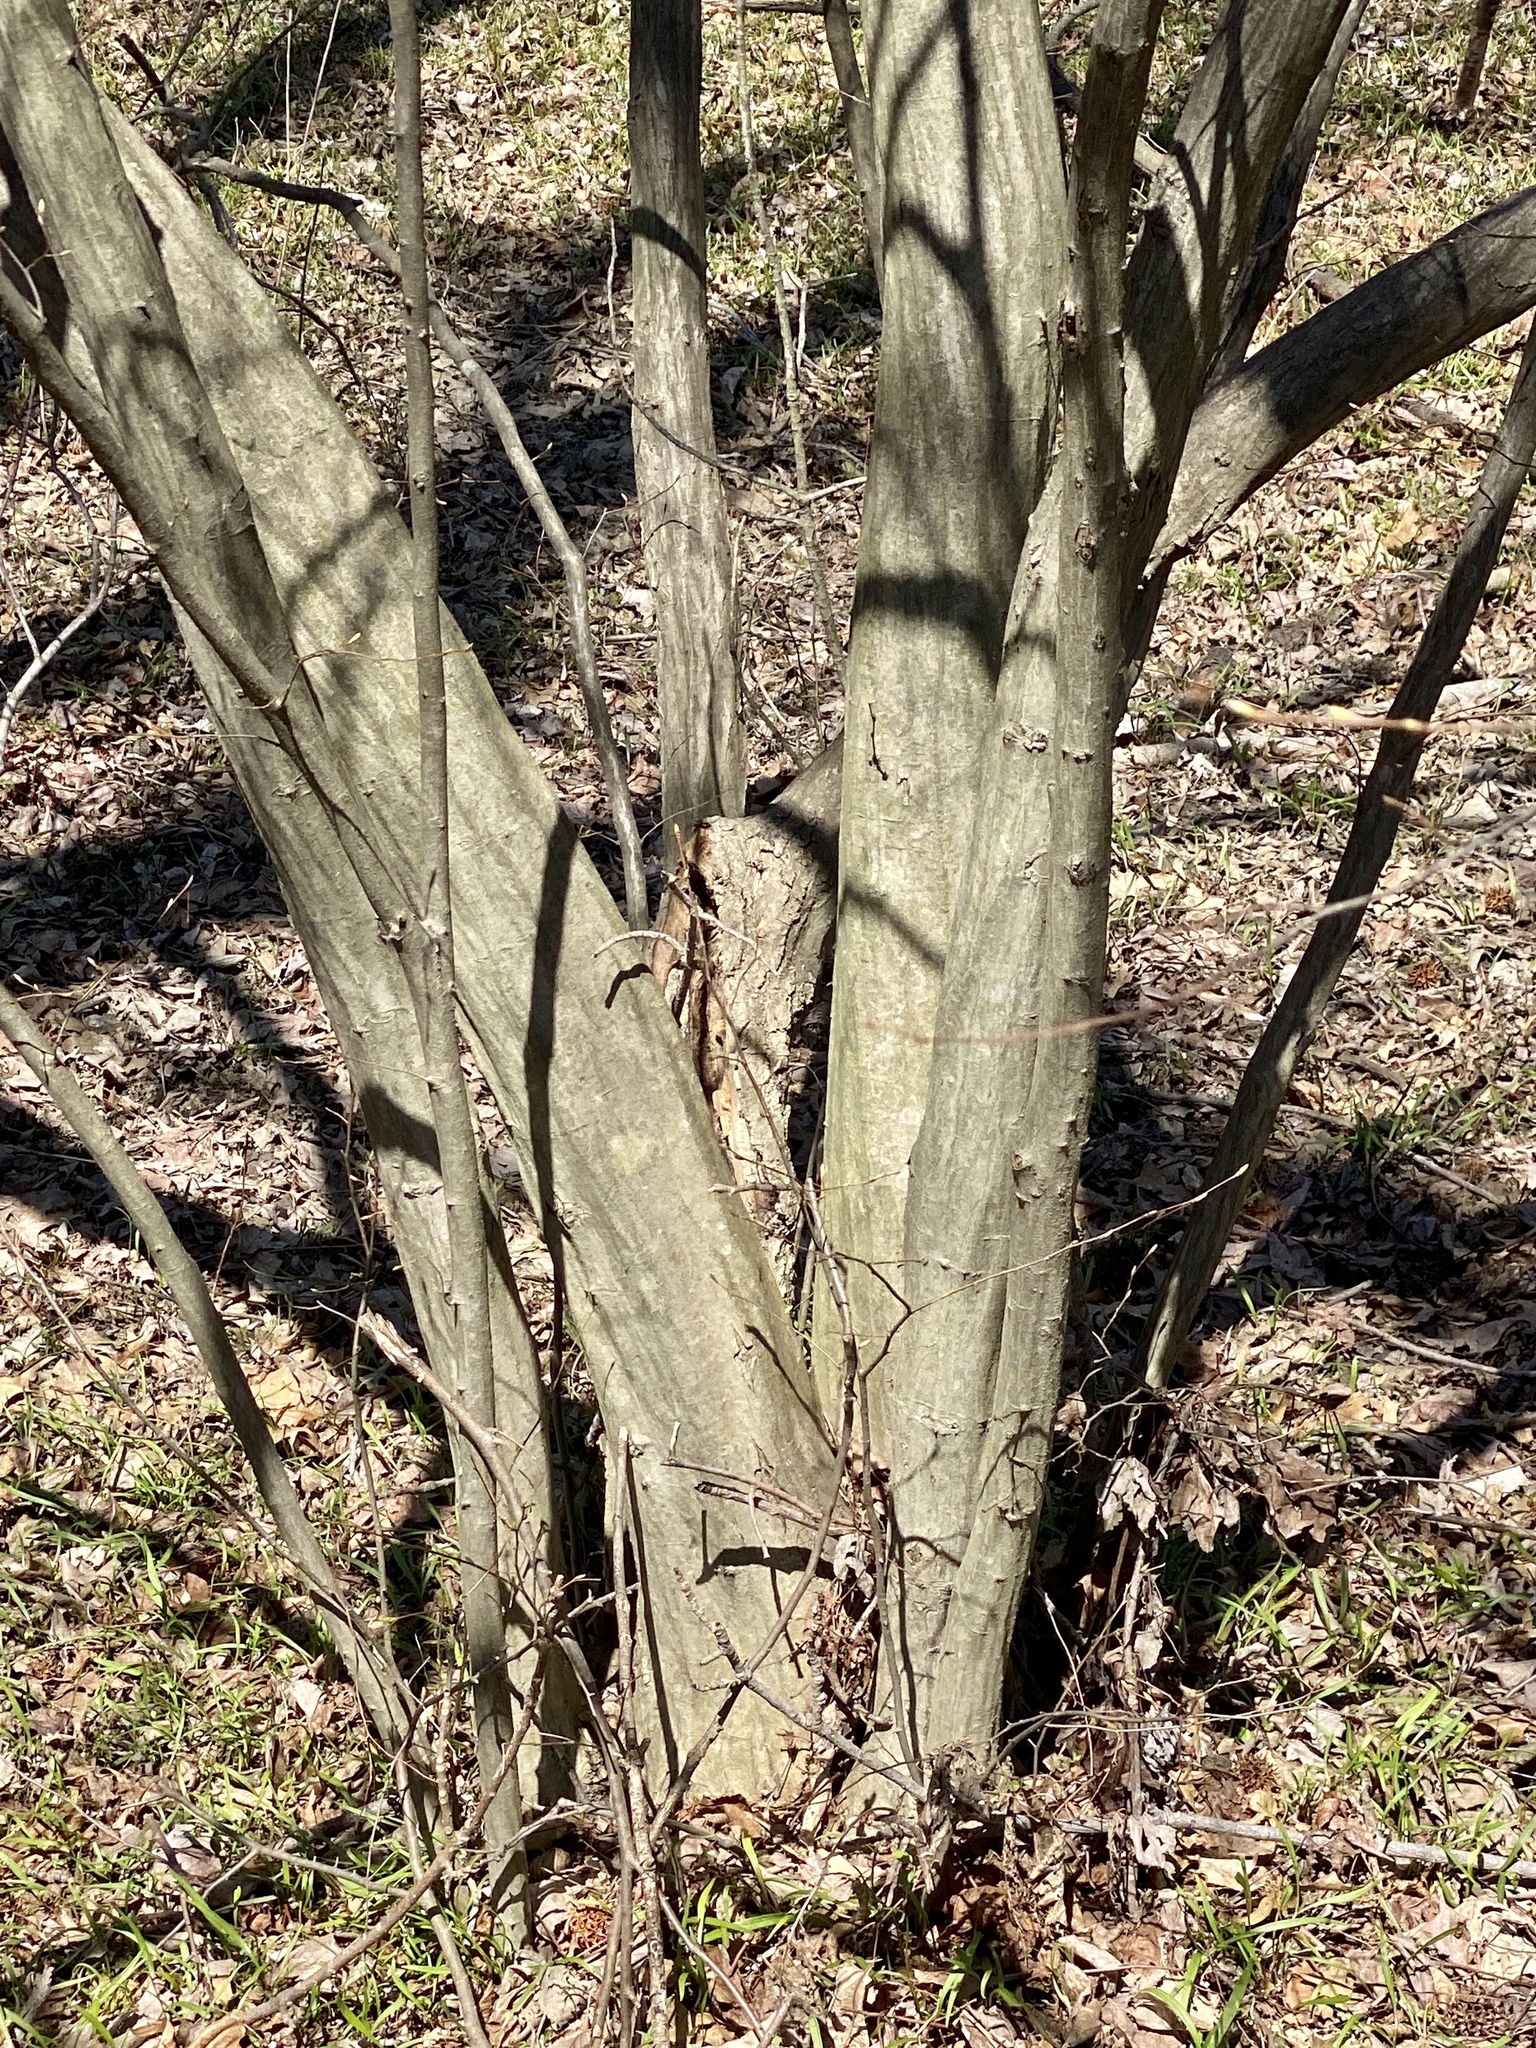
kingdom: Plantae
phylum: Tracheophyta
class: Magnoliopsida
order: Fagales
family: Betulaceae
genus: Carpinus
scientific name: Carpinus caroliniana
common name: American hornbeam
